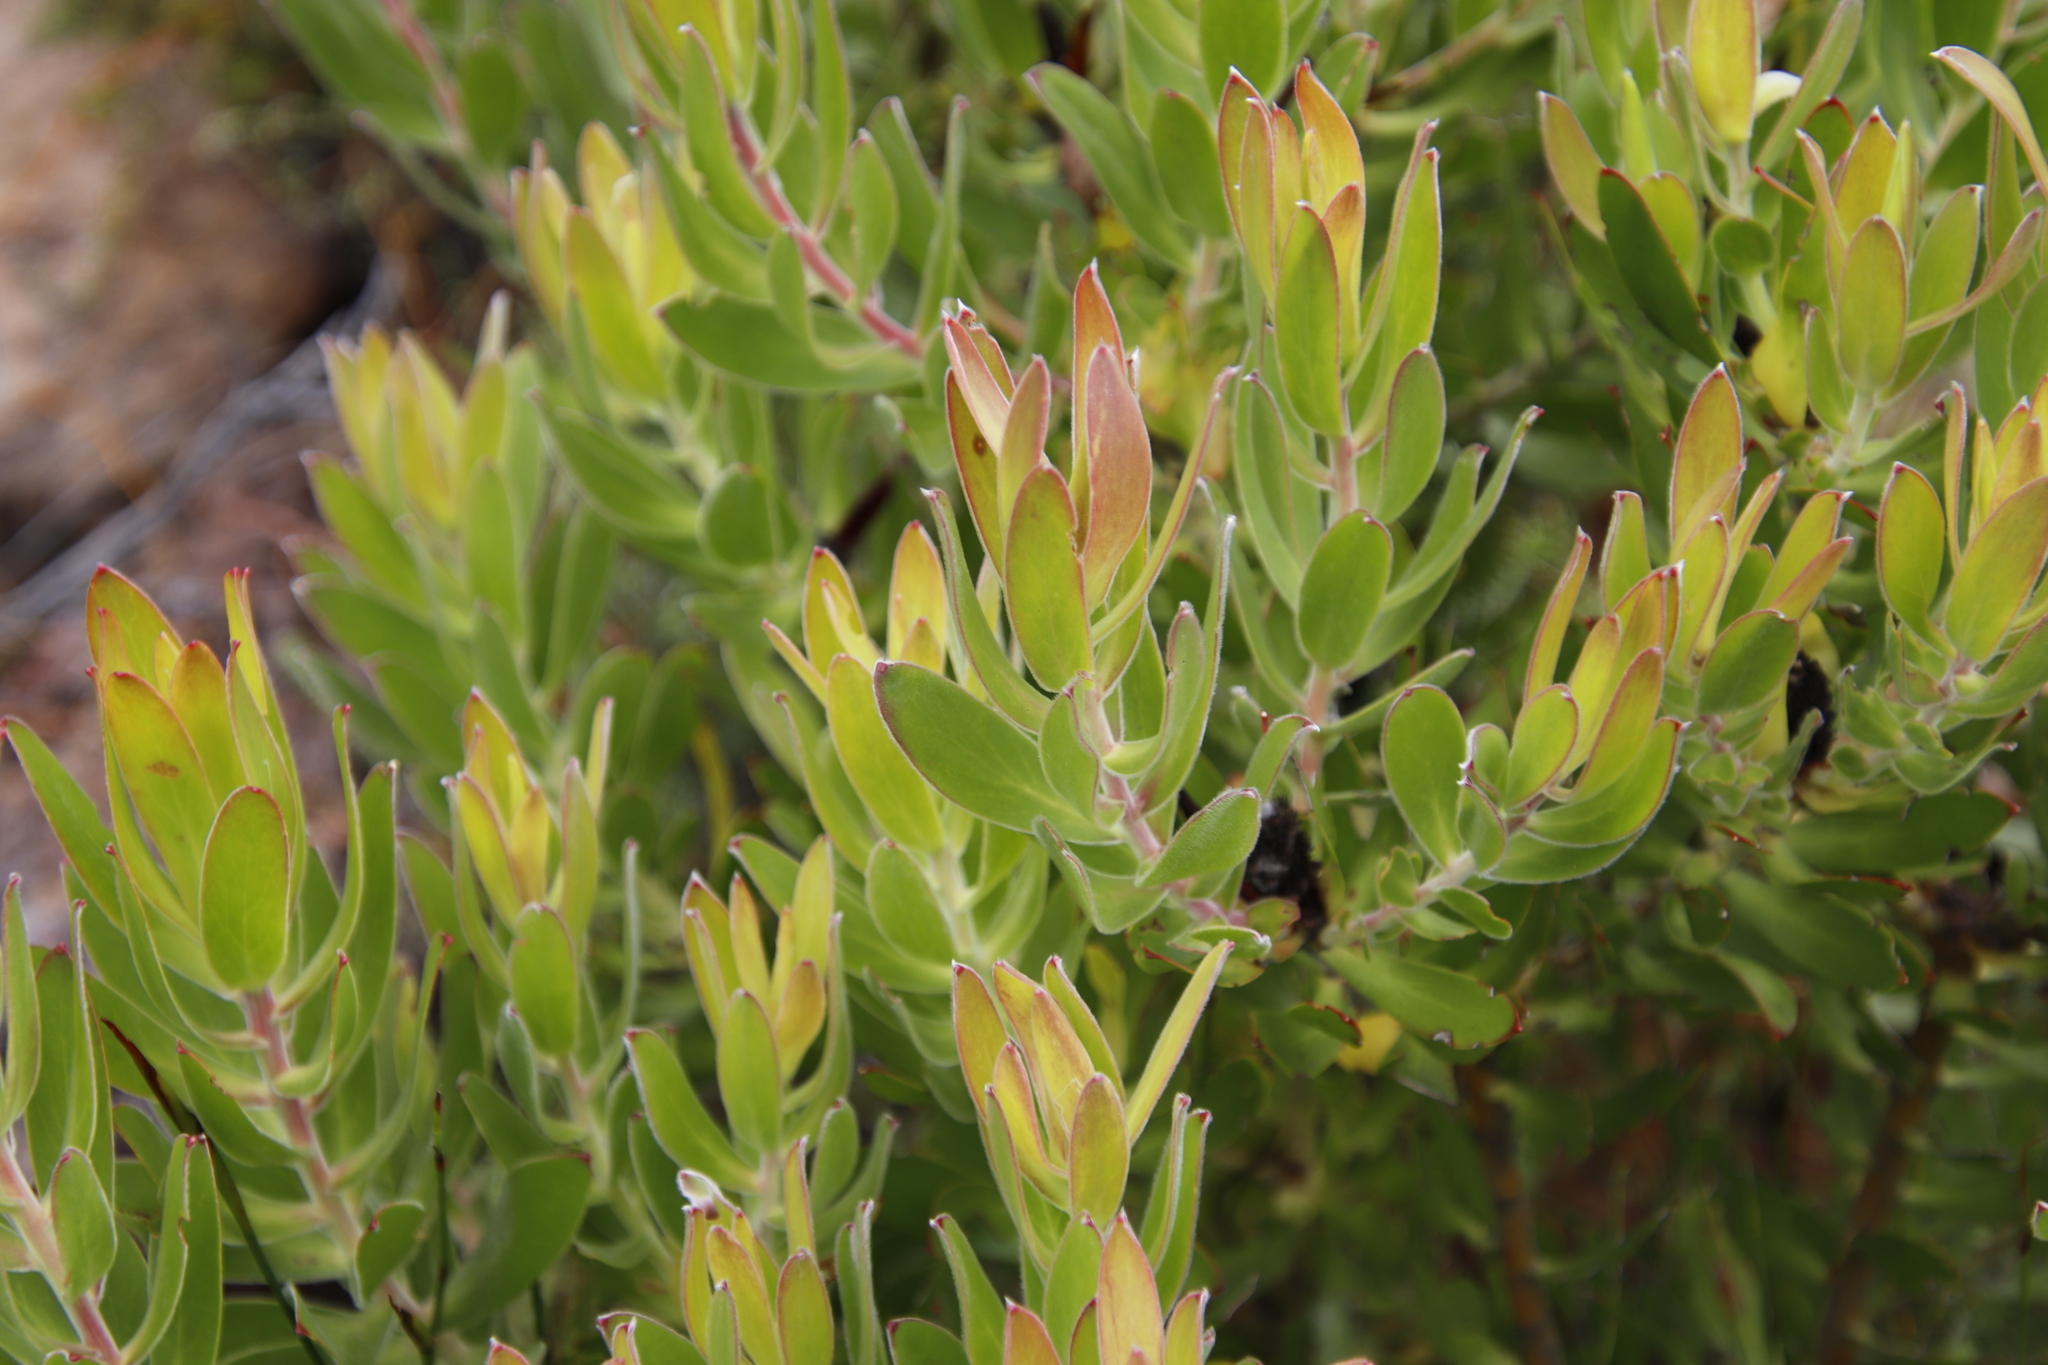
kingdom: Plantae
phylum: Tracheophyta
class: Magnoliopsida
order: Proteales
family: Proteaceae
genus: Leucadendron
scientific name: Leucadendron laureolum
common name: Golden sunshinebush
